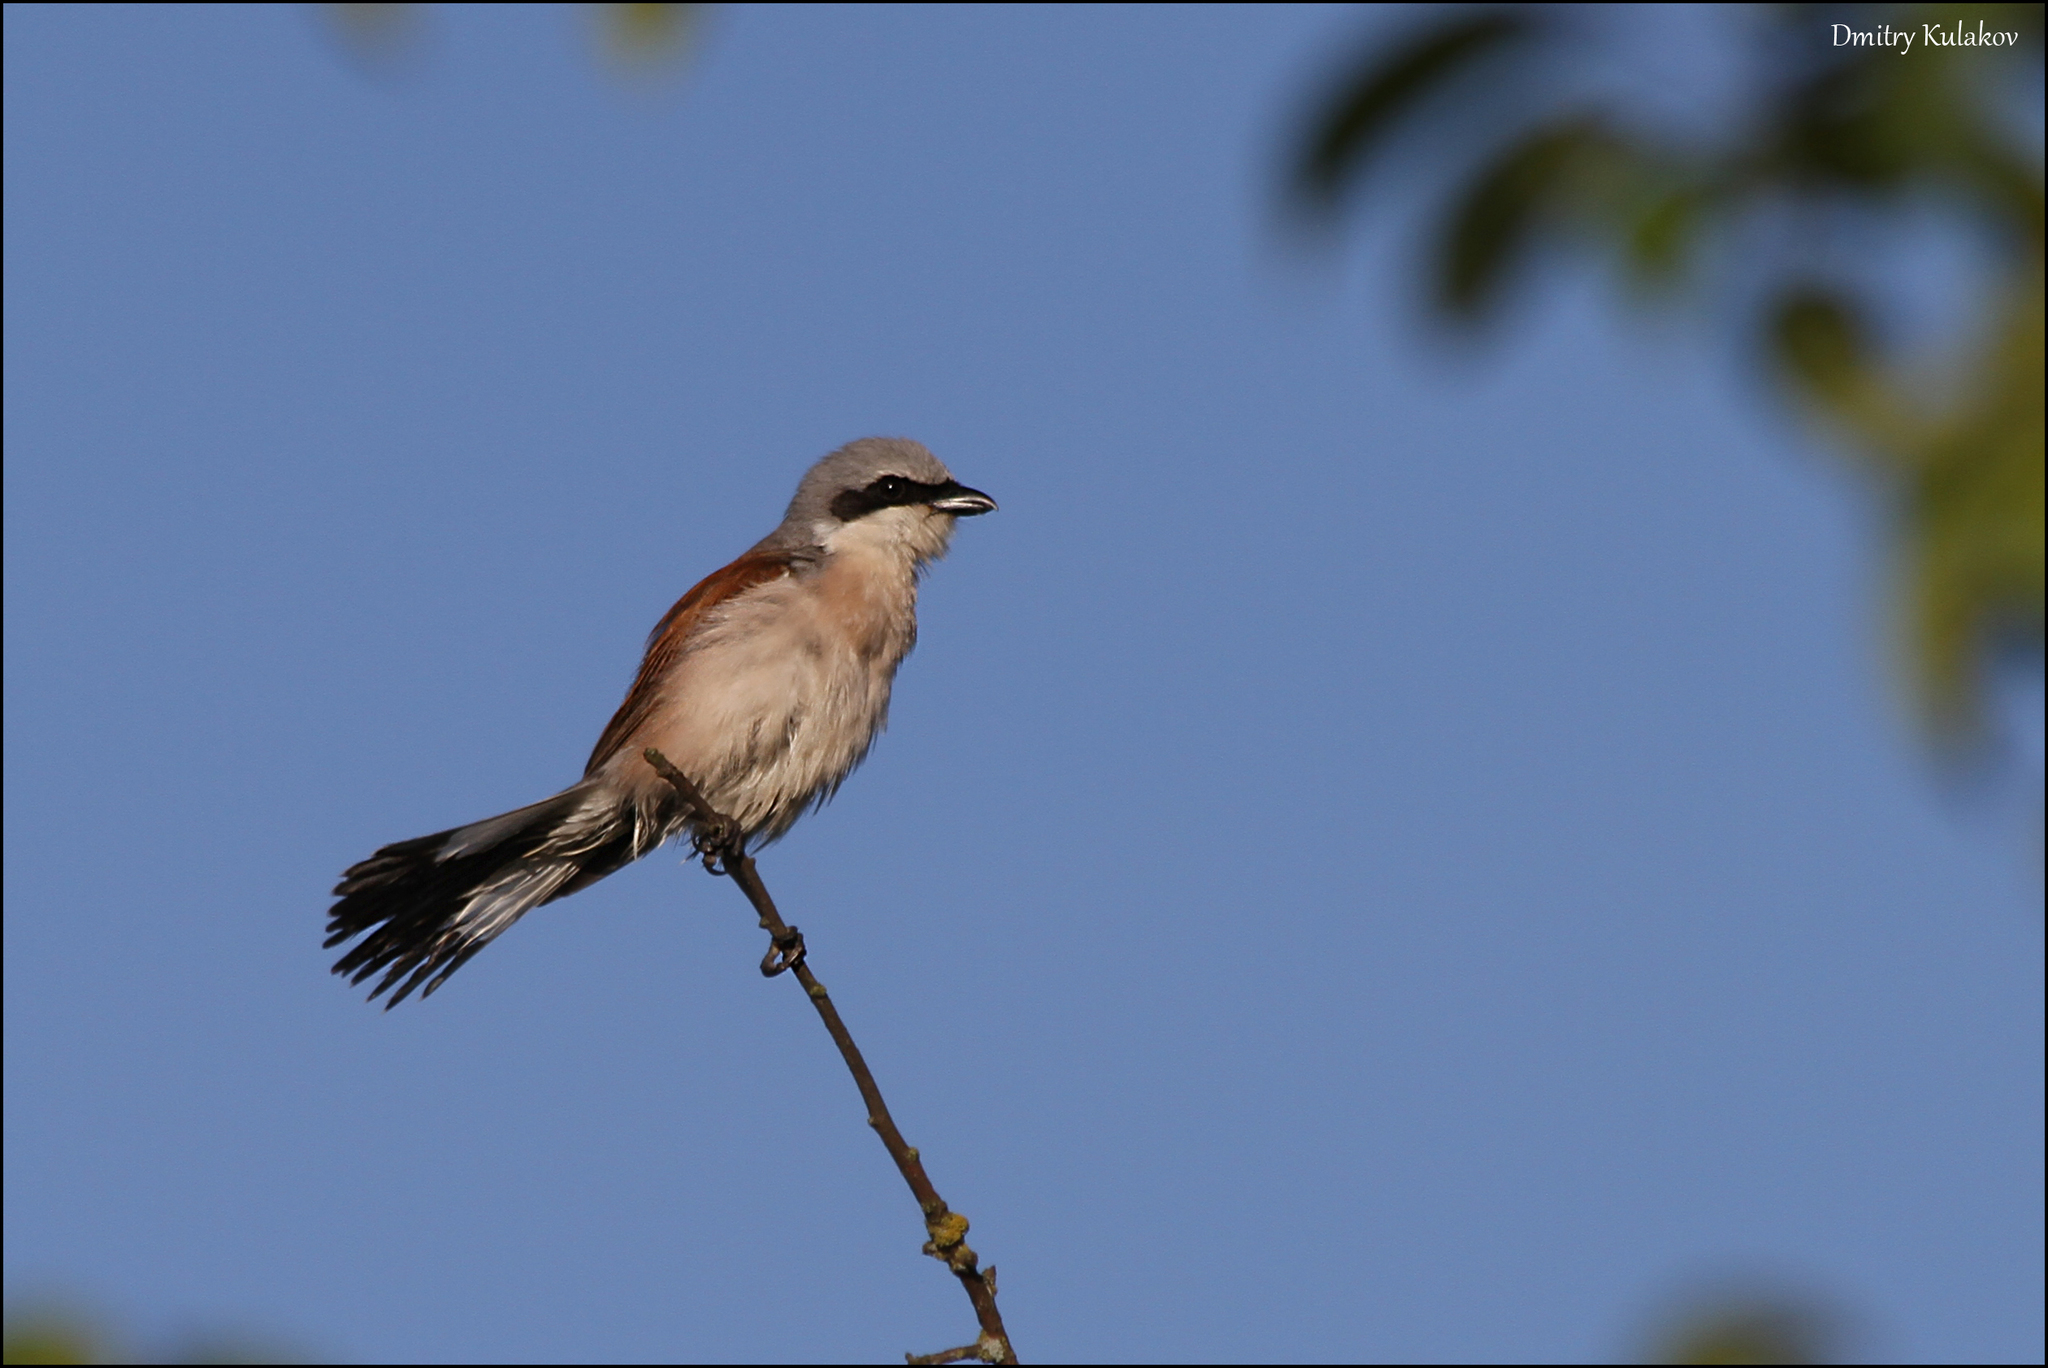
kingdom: Animalia
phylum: Chordata
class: Aves
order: Passeriformes
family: Laniidae
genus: Lanius
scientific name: Lanius collurio
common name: Red-backed shrike
